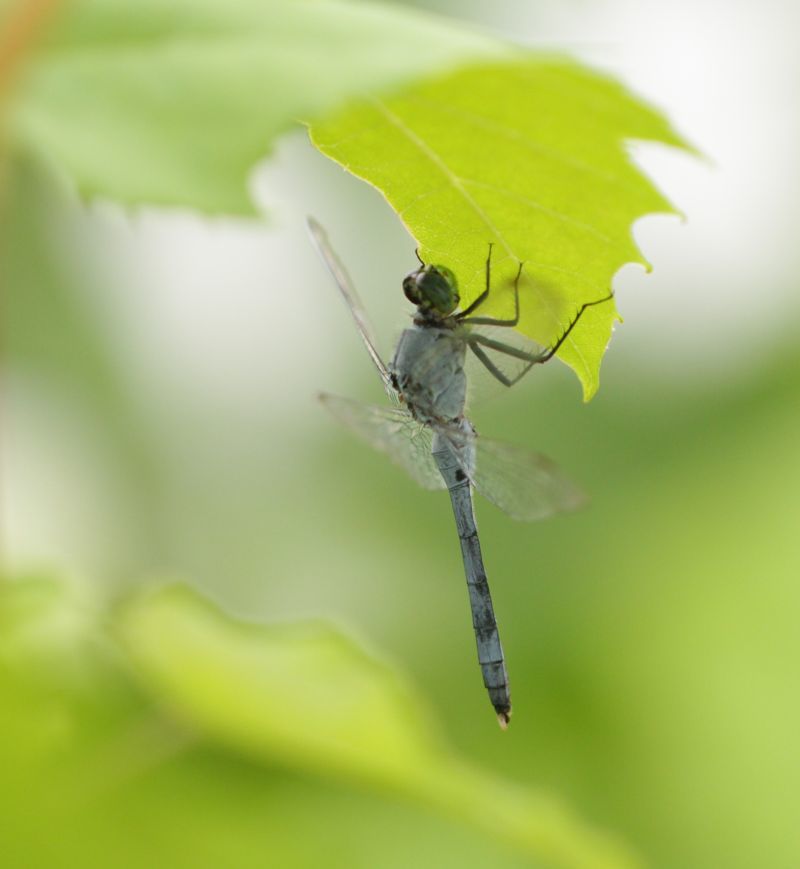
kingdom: Animalia
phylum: Arthropoda
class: Insecta
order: Odonata
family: Libellulidae
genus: Erythemis
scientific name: Erythemis simplicicollis
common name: Eastern pondhawk
